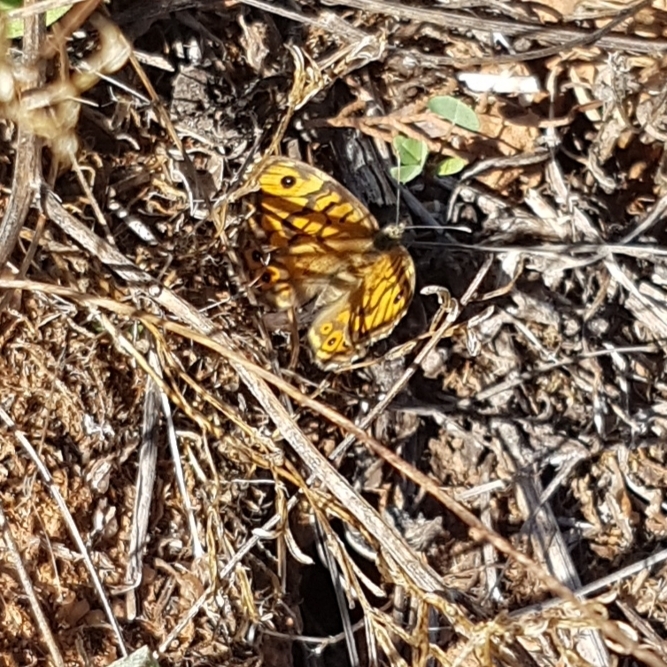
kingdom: Animalia
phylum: Arthropoda
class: Insecta
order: Lepidoptera
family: Nymphalidae
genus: Pararge
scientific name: Pararge Lasiommata megera
